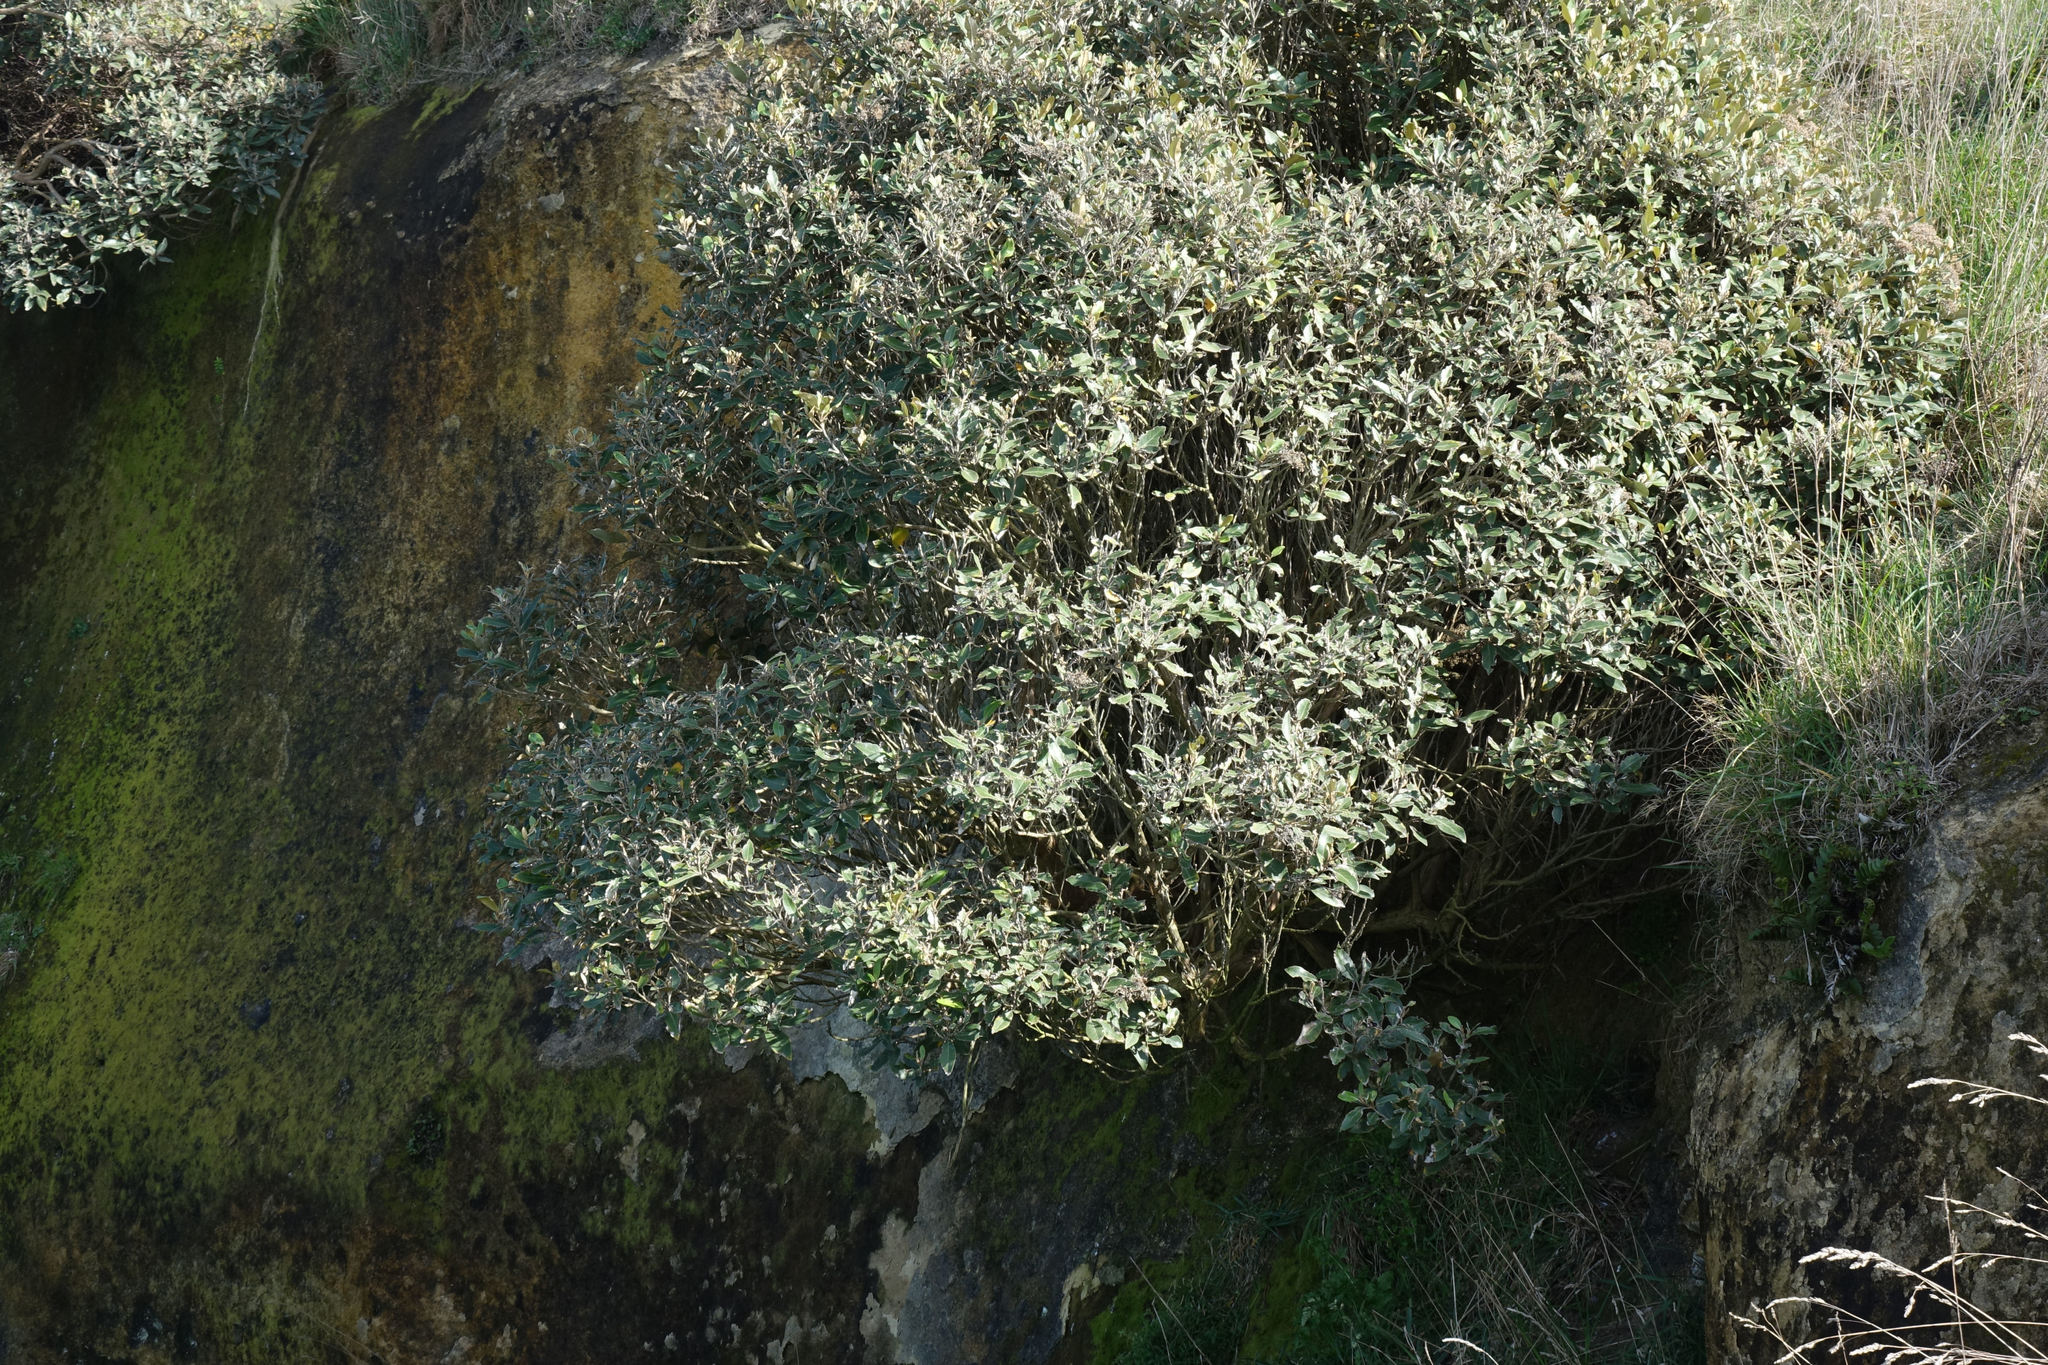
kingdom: Plantae
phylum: Tracheophyta
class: Magnoliopsida
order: Asterales
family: Asteraceae
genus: Olearia
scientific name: Olearia avicenniifolia
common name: Mangrove-leaf daisybush
